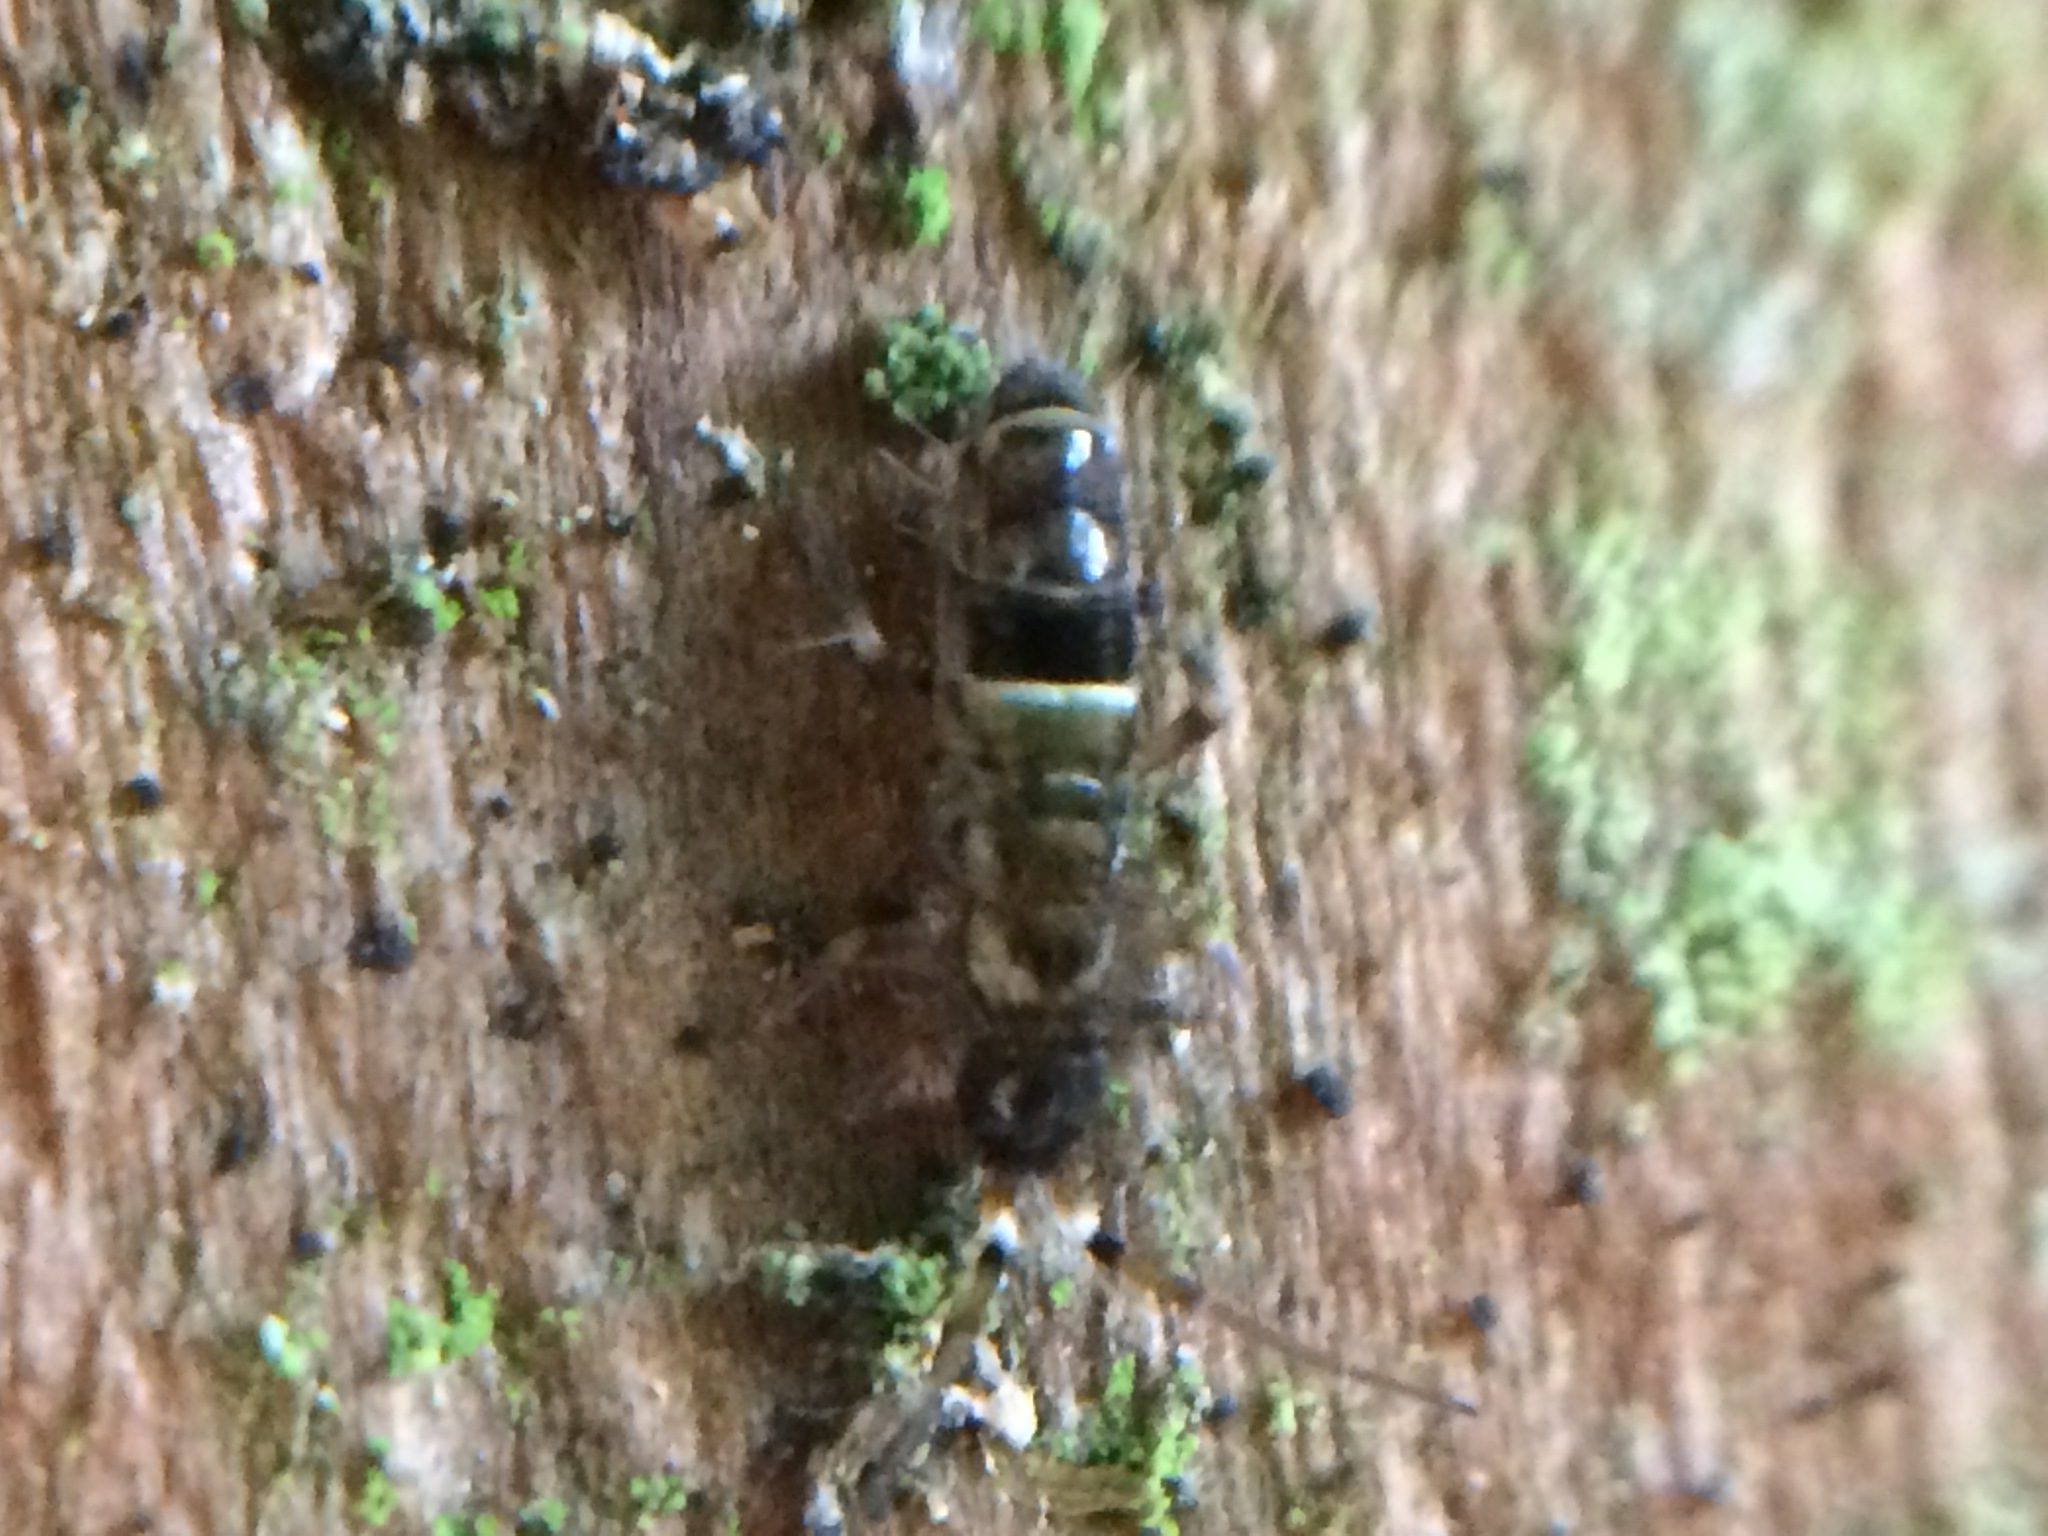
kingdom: Animalia
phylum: Arthropoda
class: Collembola
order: Entomobryomorpha
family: Orchesellidae
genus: Orchesella
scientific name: Orchesella cincta
